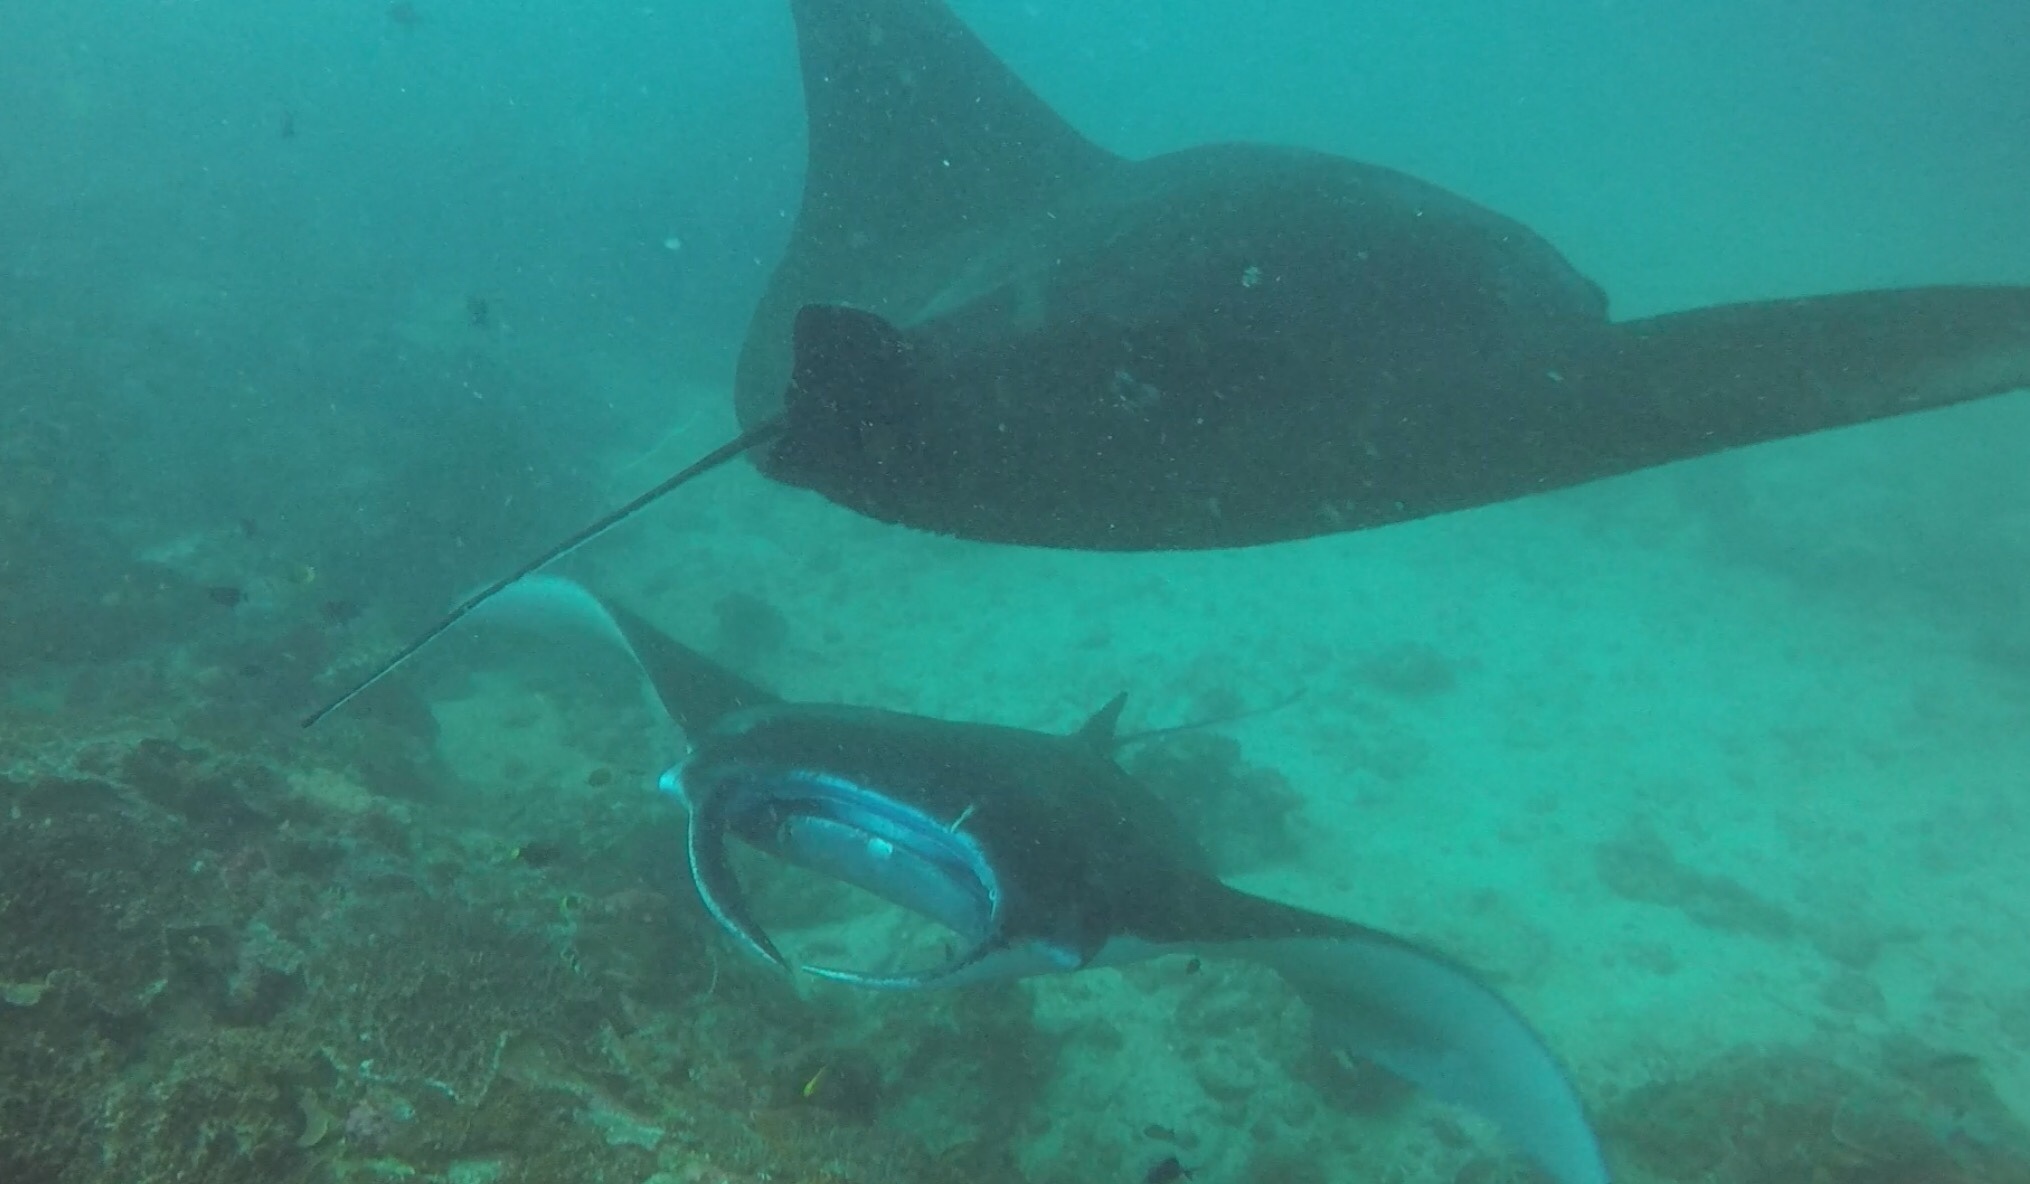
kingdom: Animalia
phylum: Chordata
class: Elasmobranchii
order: Myliobatiformes
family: Myliobatidae
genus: Mobula
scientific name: Mobula alfredi
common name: Reef manta ray
